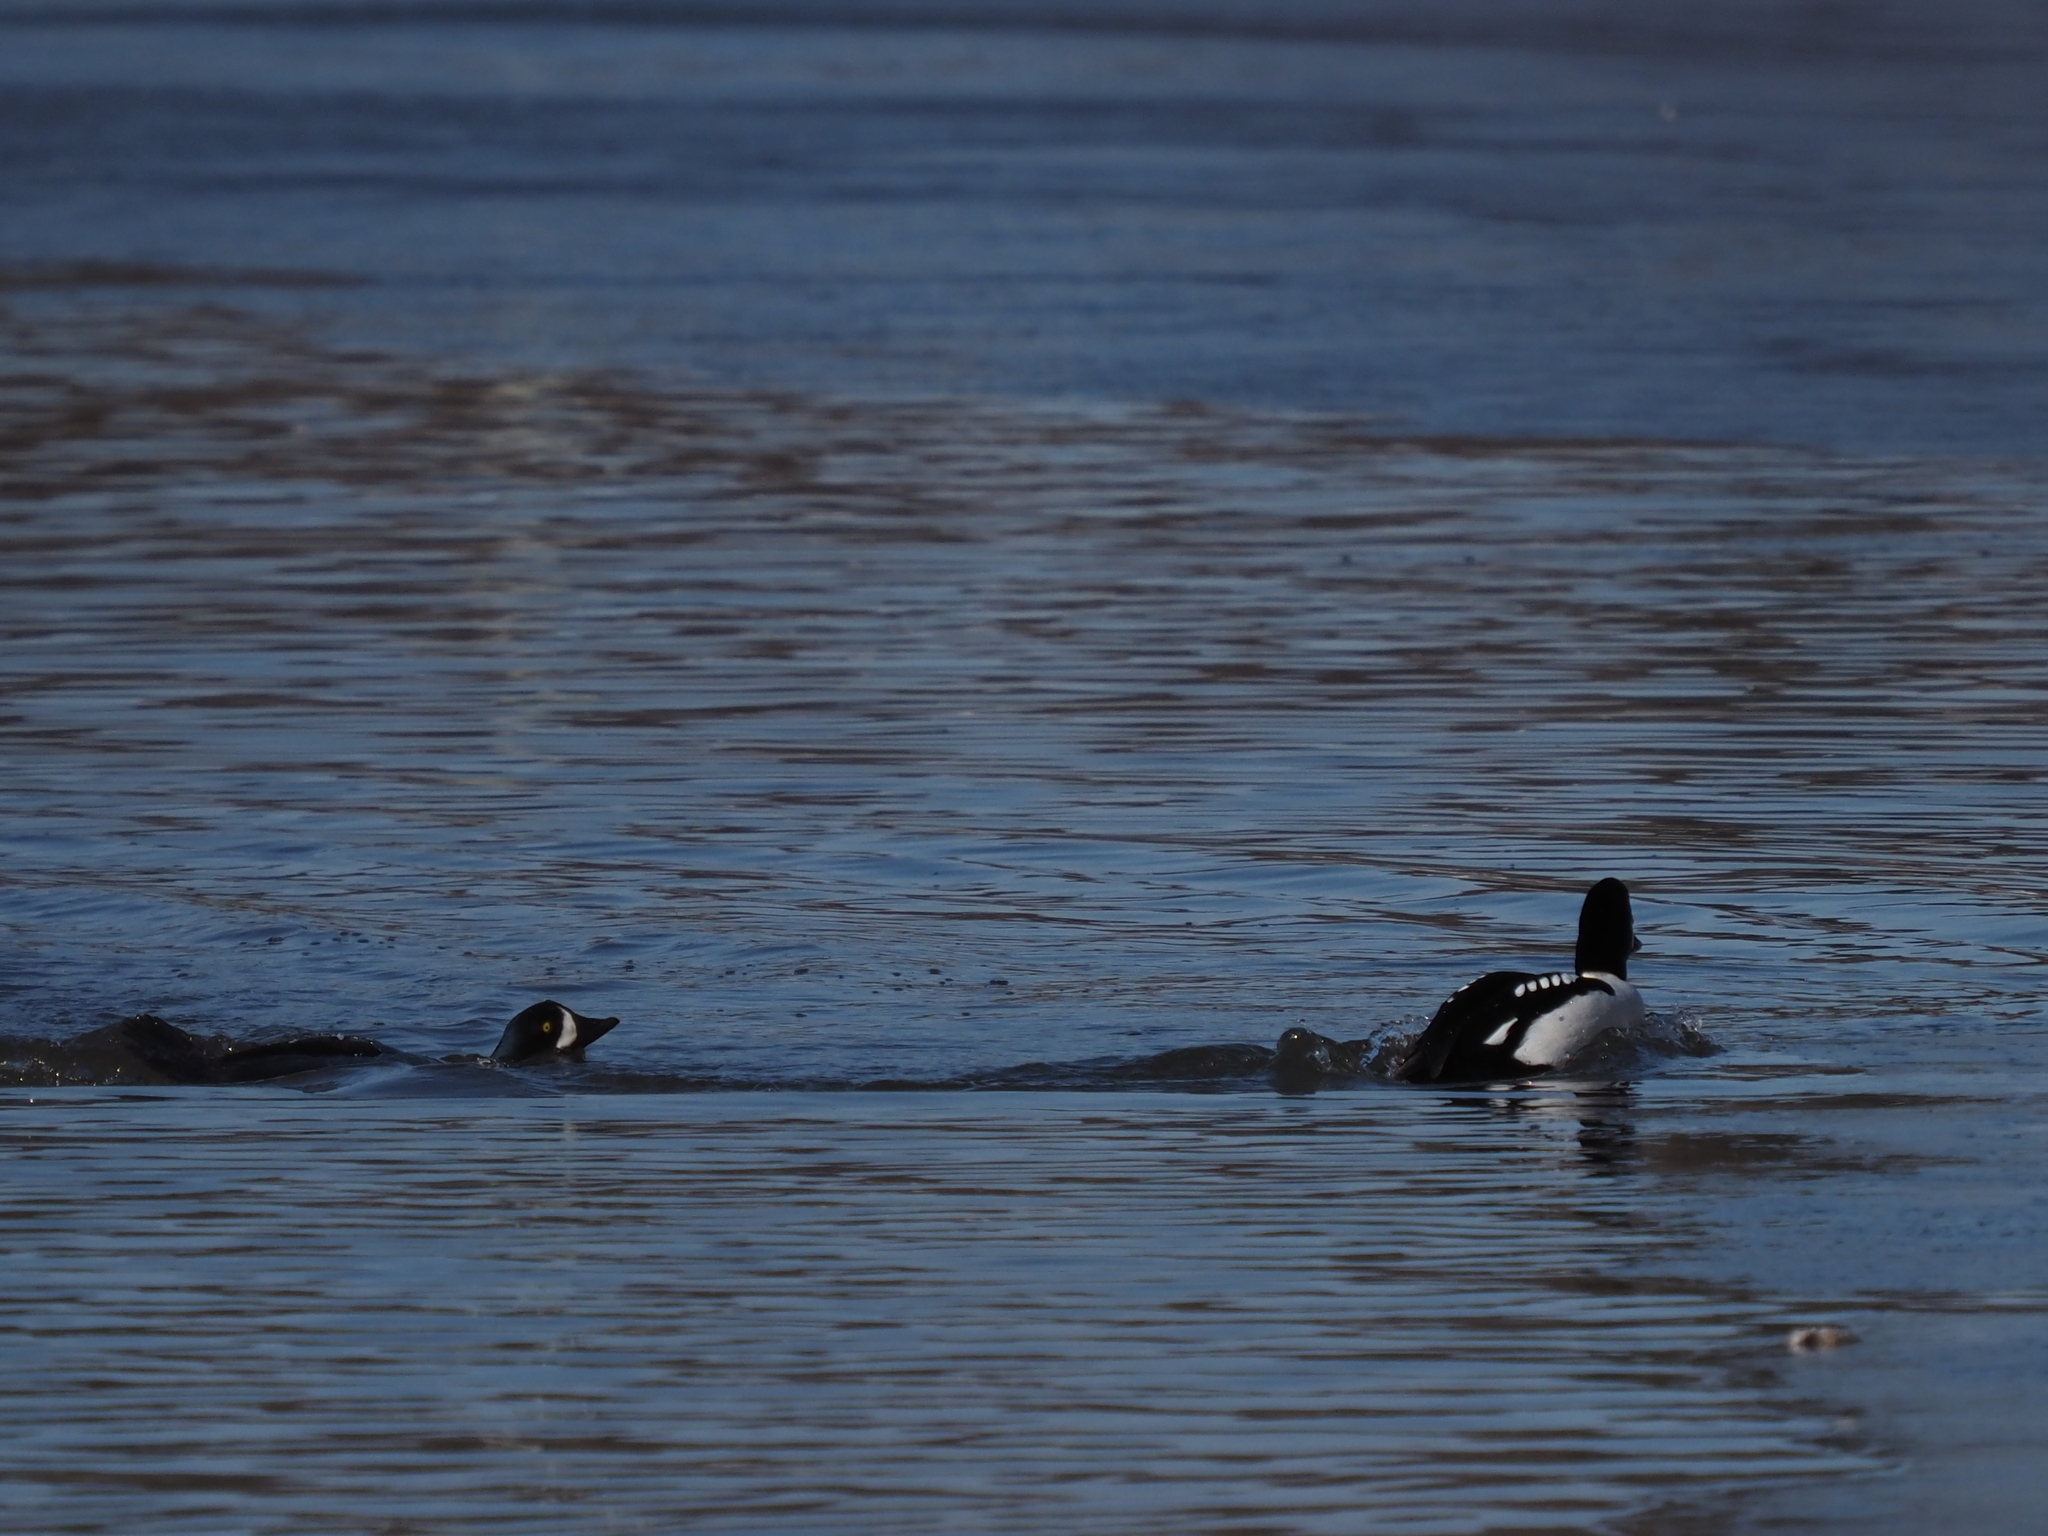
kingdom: Animalia
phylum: Chordata
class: Aves
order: Anseriformes
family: Anatidae
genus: Bucephala
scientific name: Bucephala islandica
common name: Barrow's goldeneye
